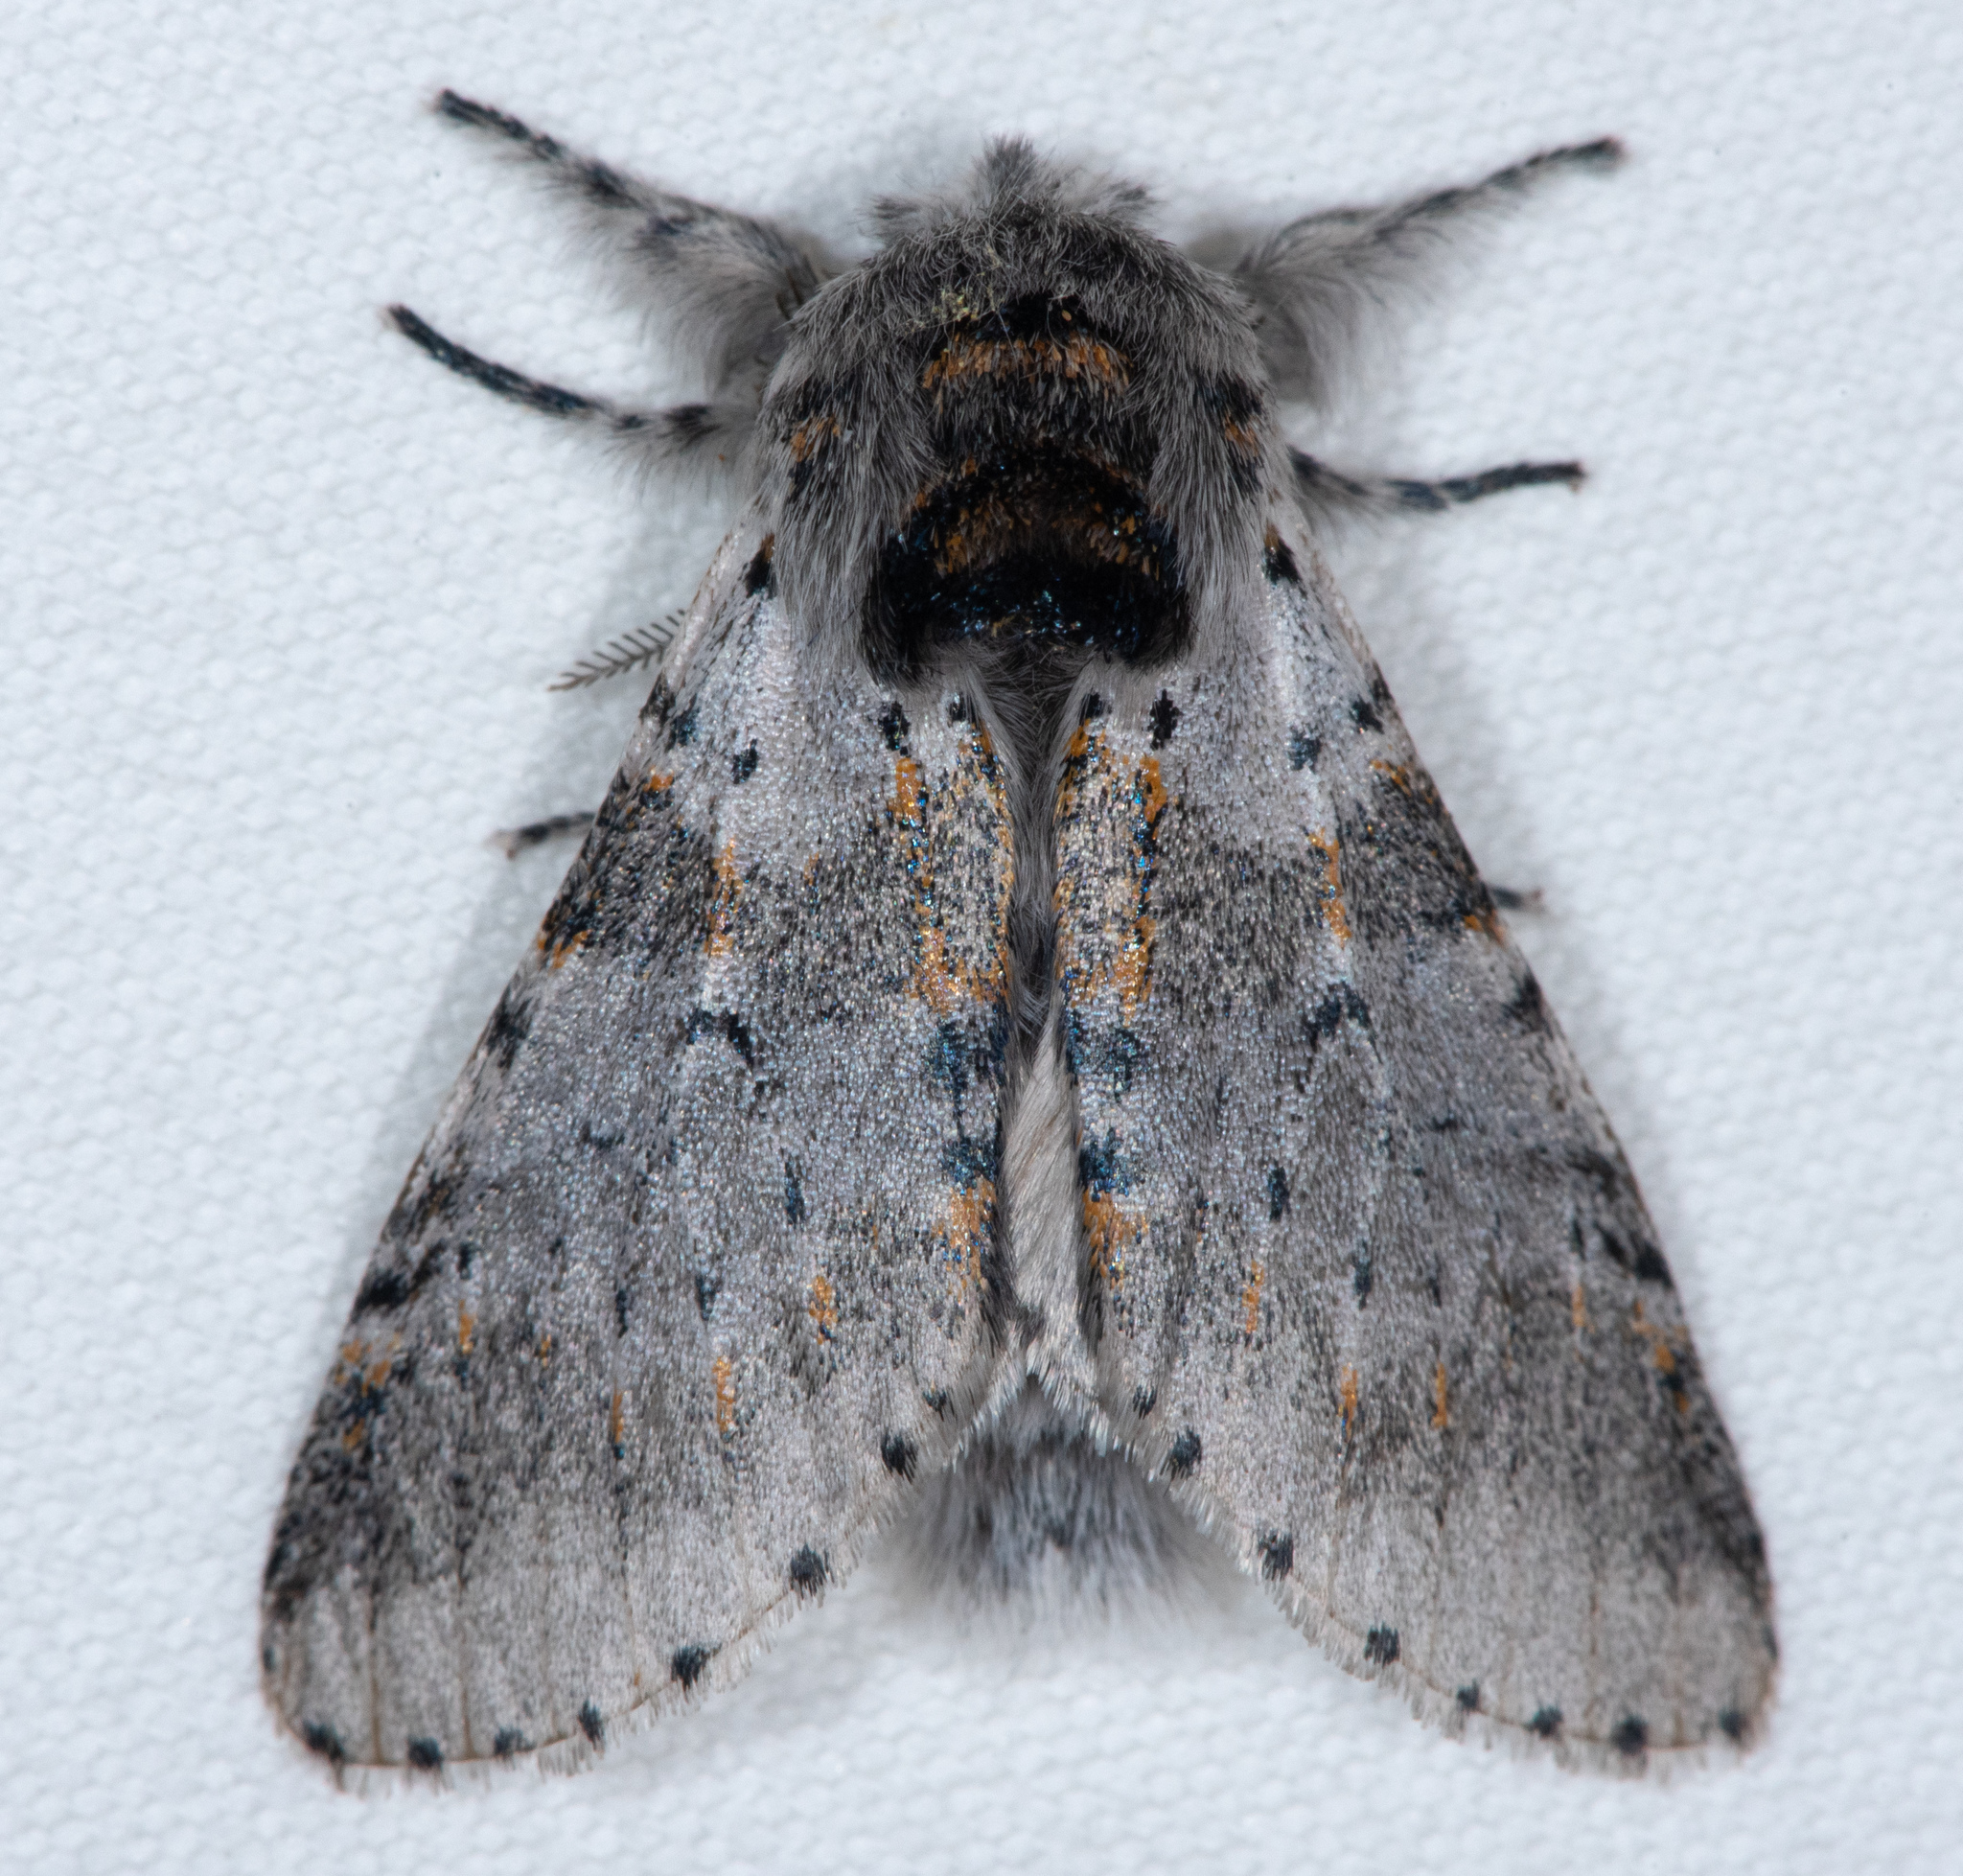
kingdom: Animalia
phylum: Arthropoda
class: Insecta
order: Lepidoptera
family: Notodontidae
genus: Furcula
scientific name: Furcula cinerea
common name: Gray furcula
